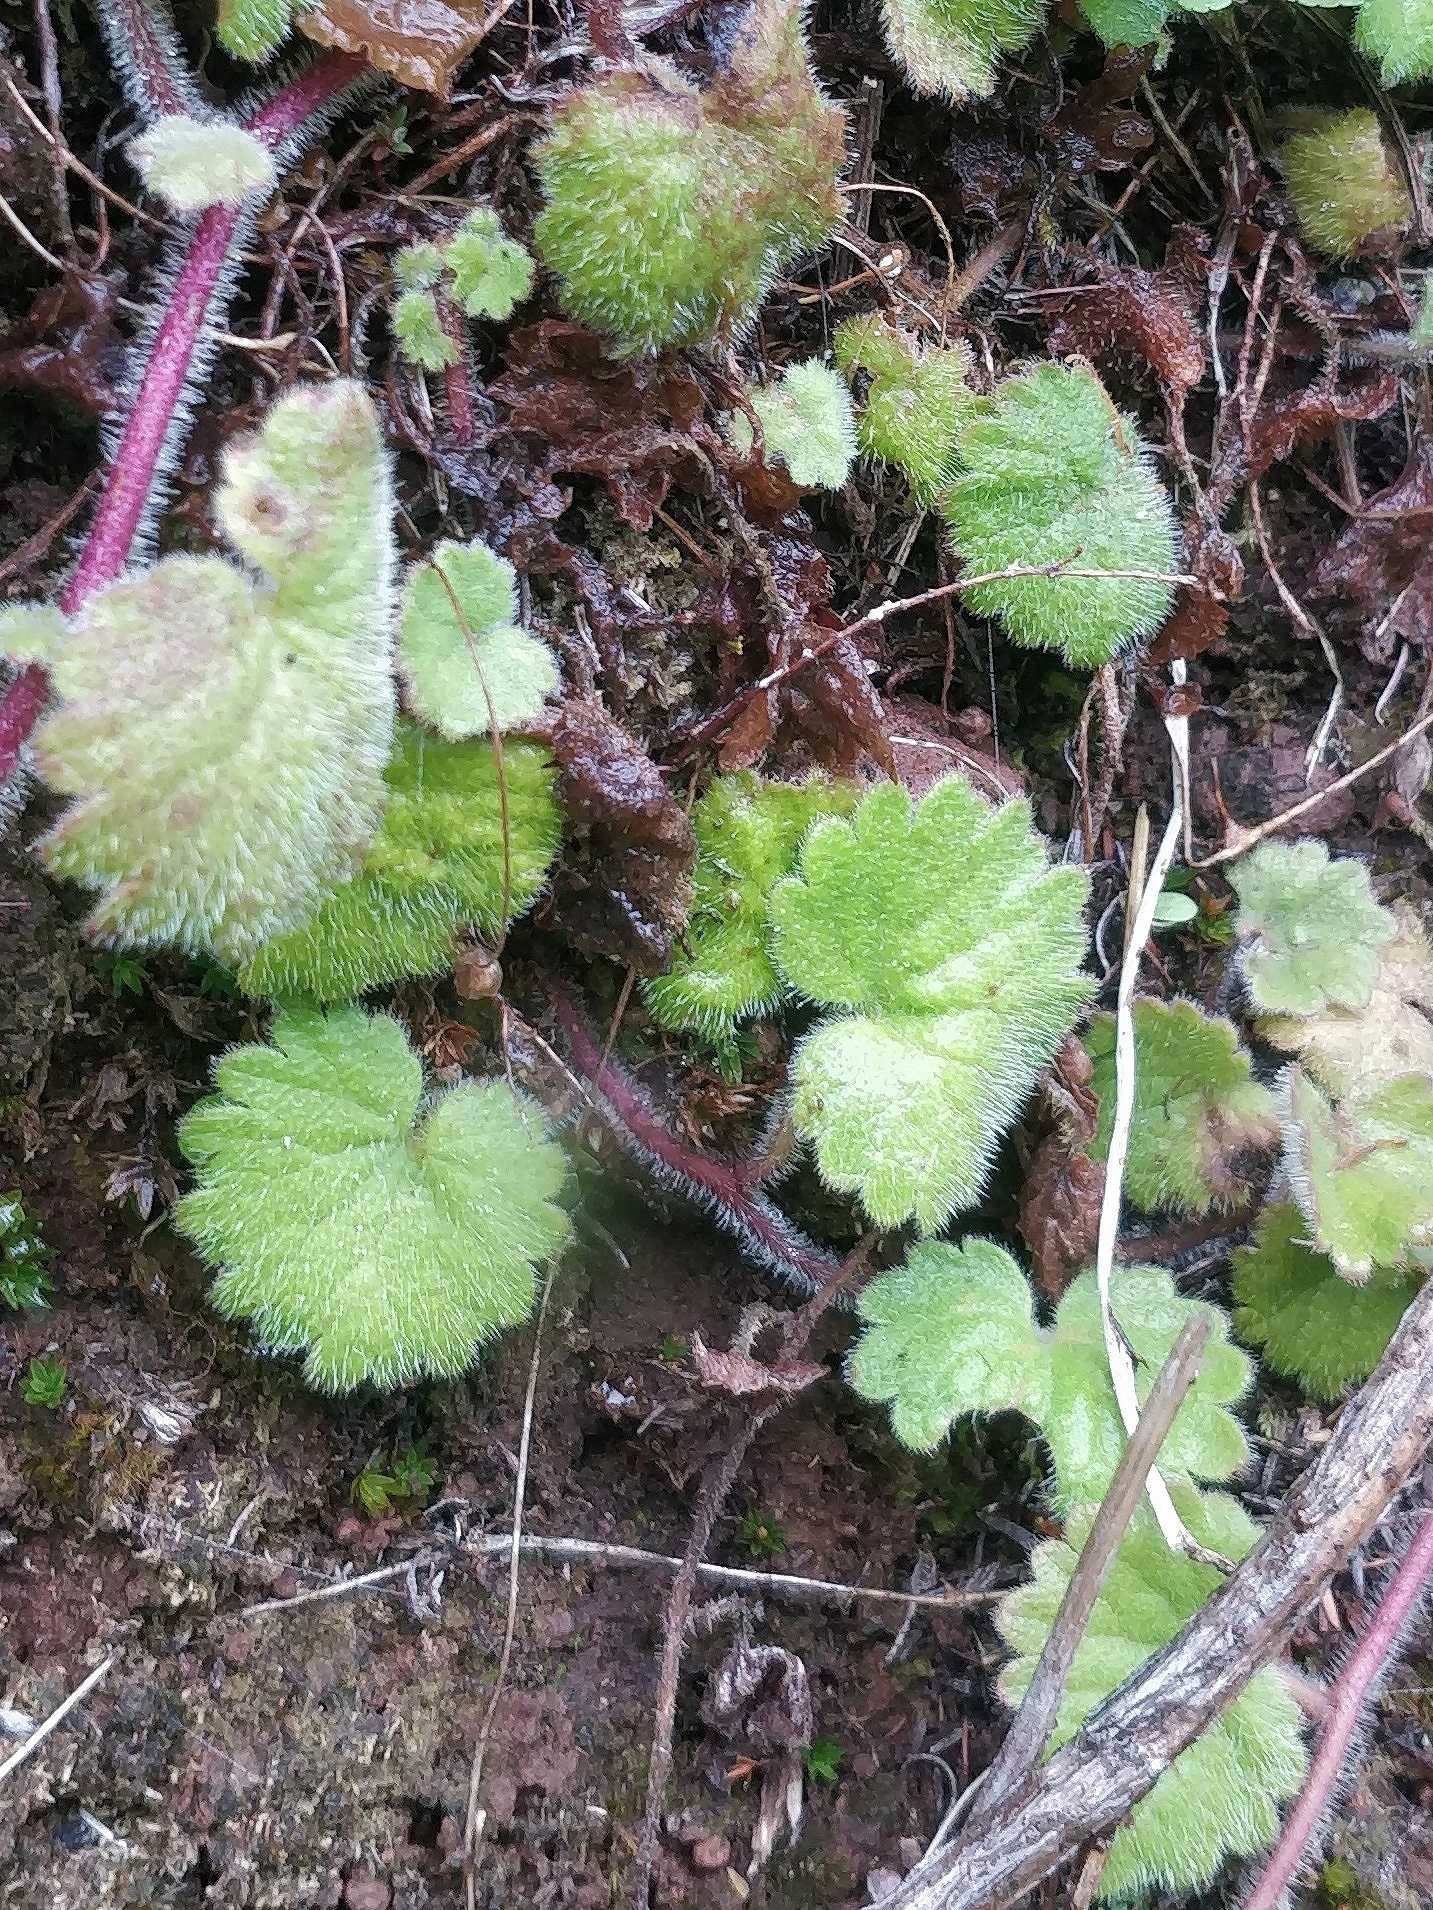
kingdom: Plantae
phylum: Tracheophyta
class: Magnoliopsida
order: Lamiales
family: Plantaginaceae
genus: Sibthorpia
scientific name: Sibthorpia peregrina
